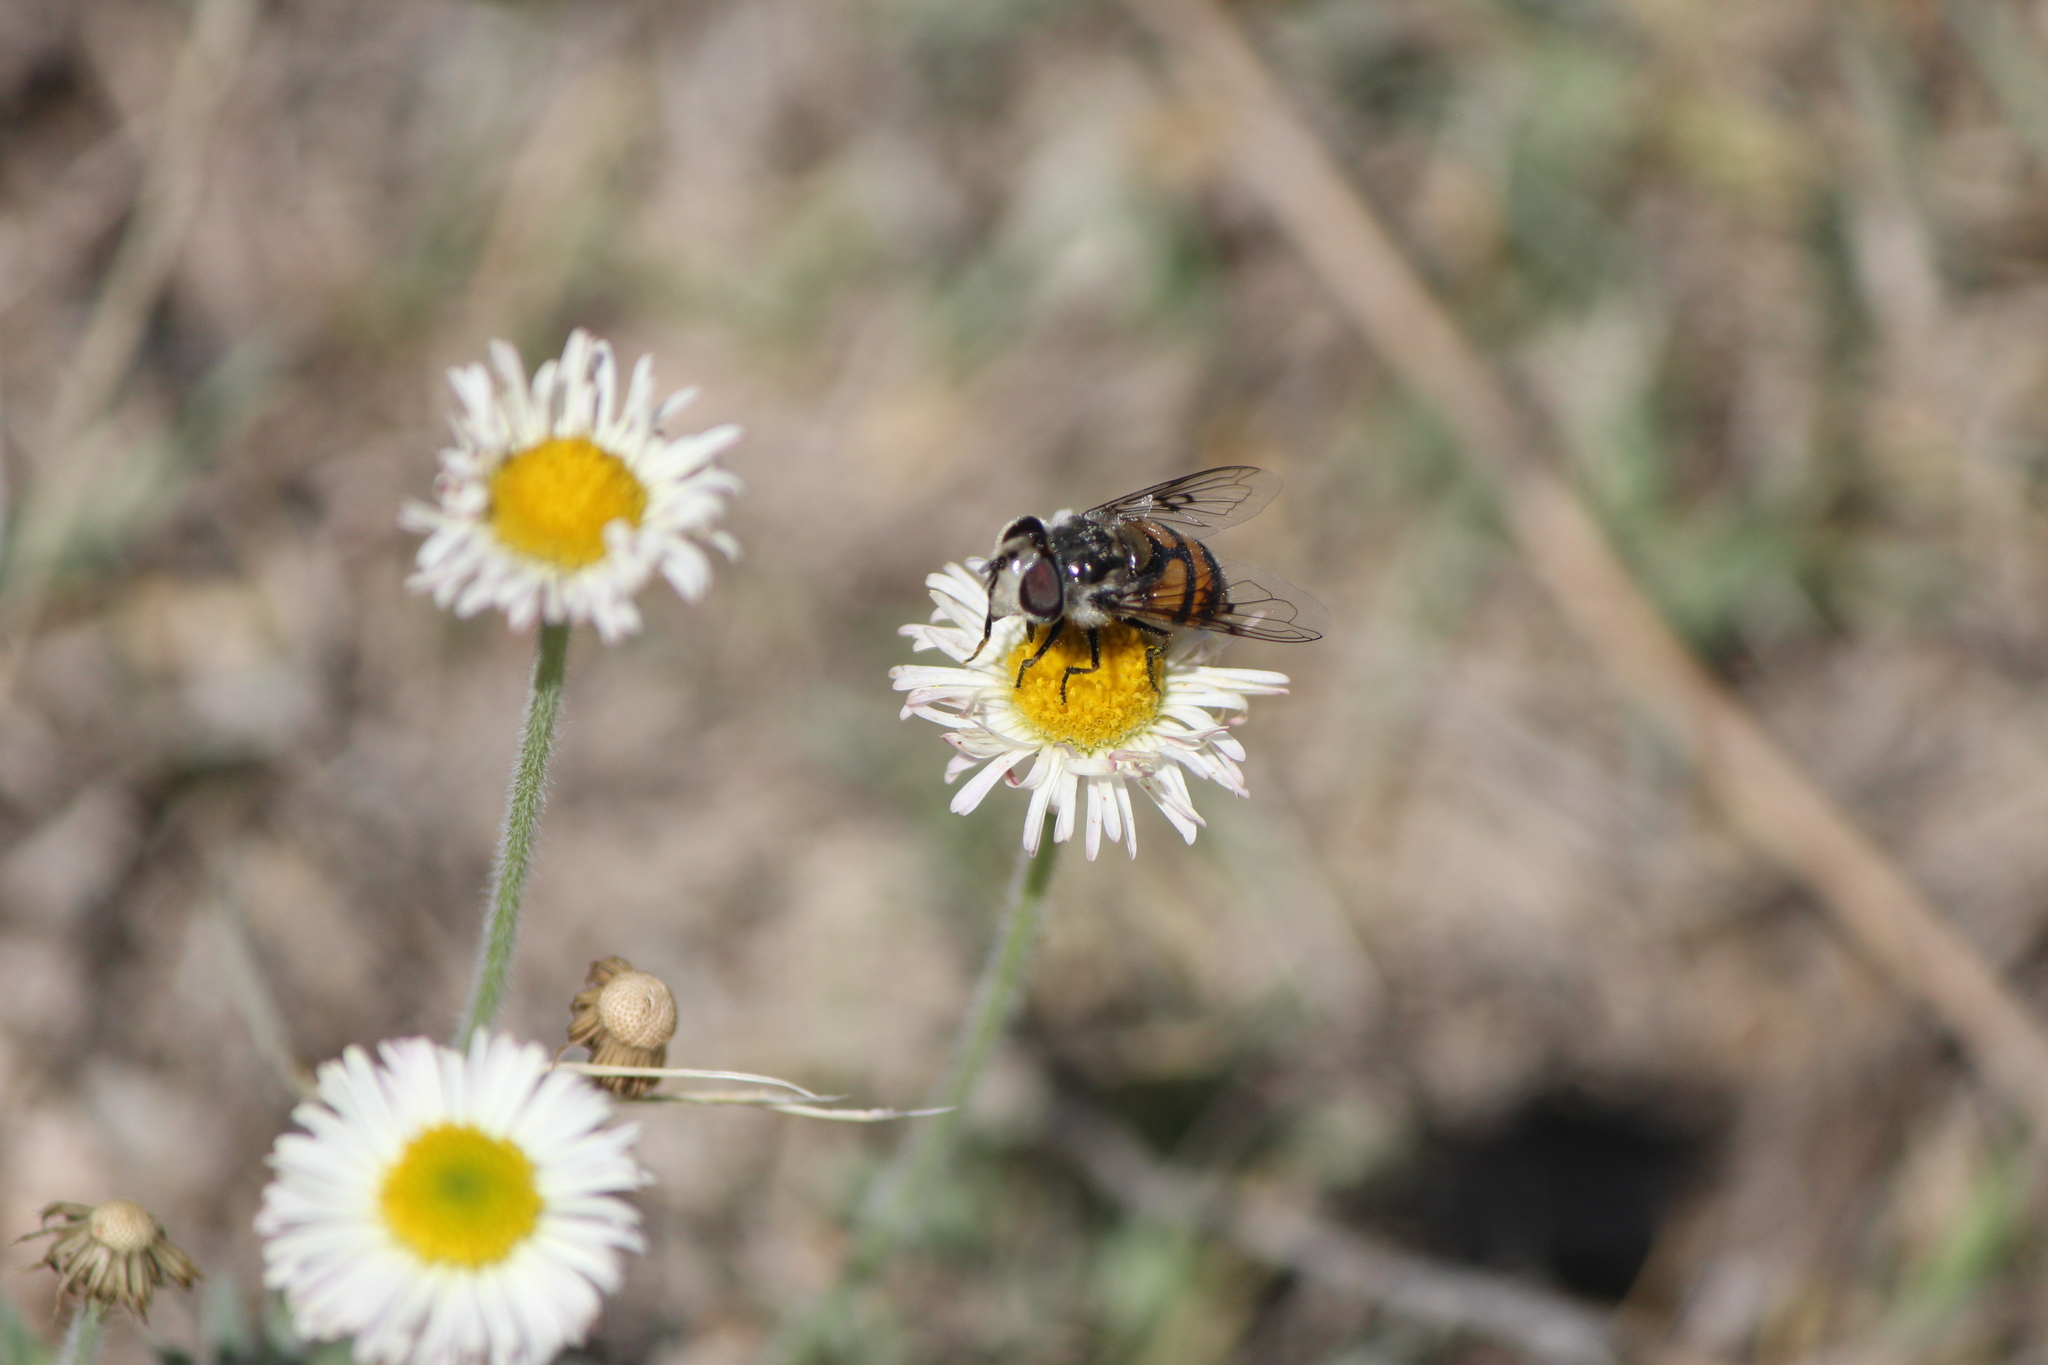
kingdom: Animalia
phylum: Arthropoda
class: Insecta
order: Diptera
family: Syrphidae
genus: Copestylum
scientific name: Copestylum avidum
